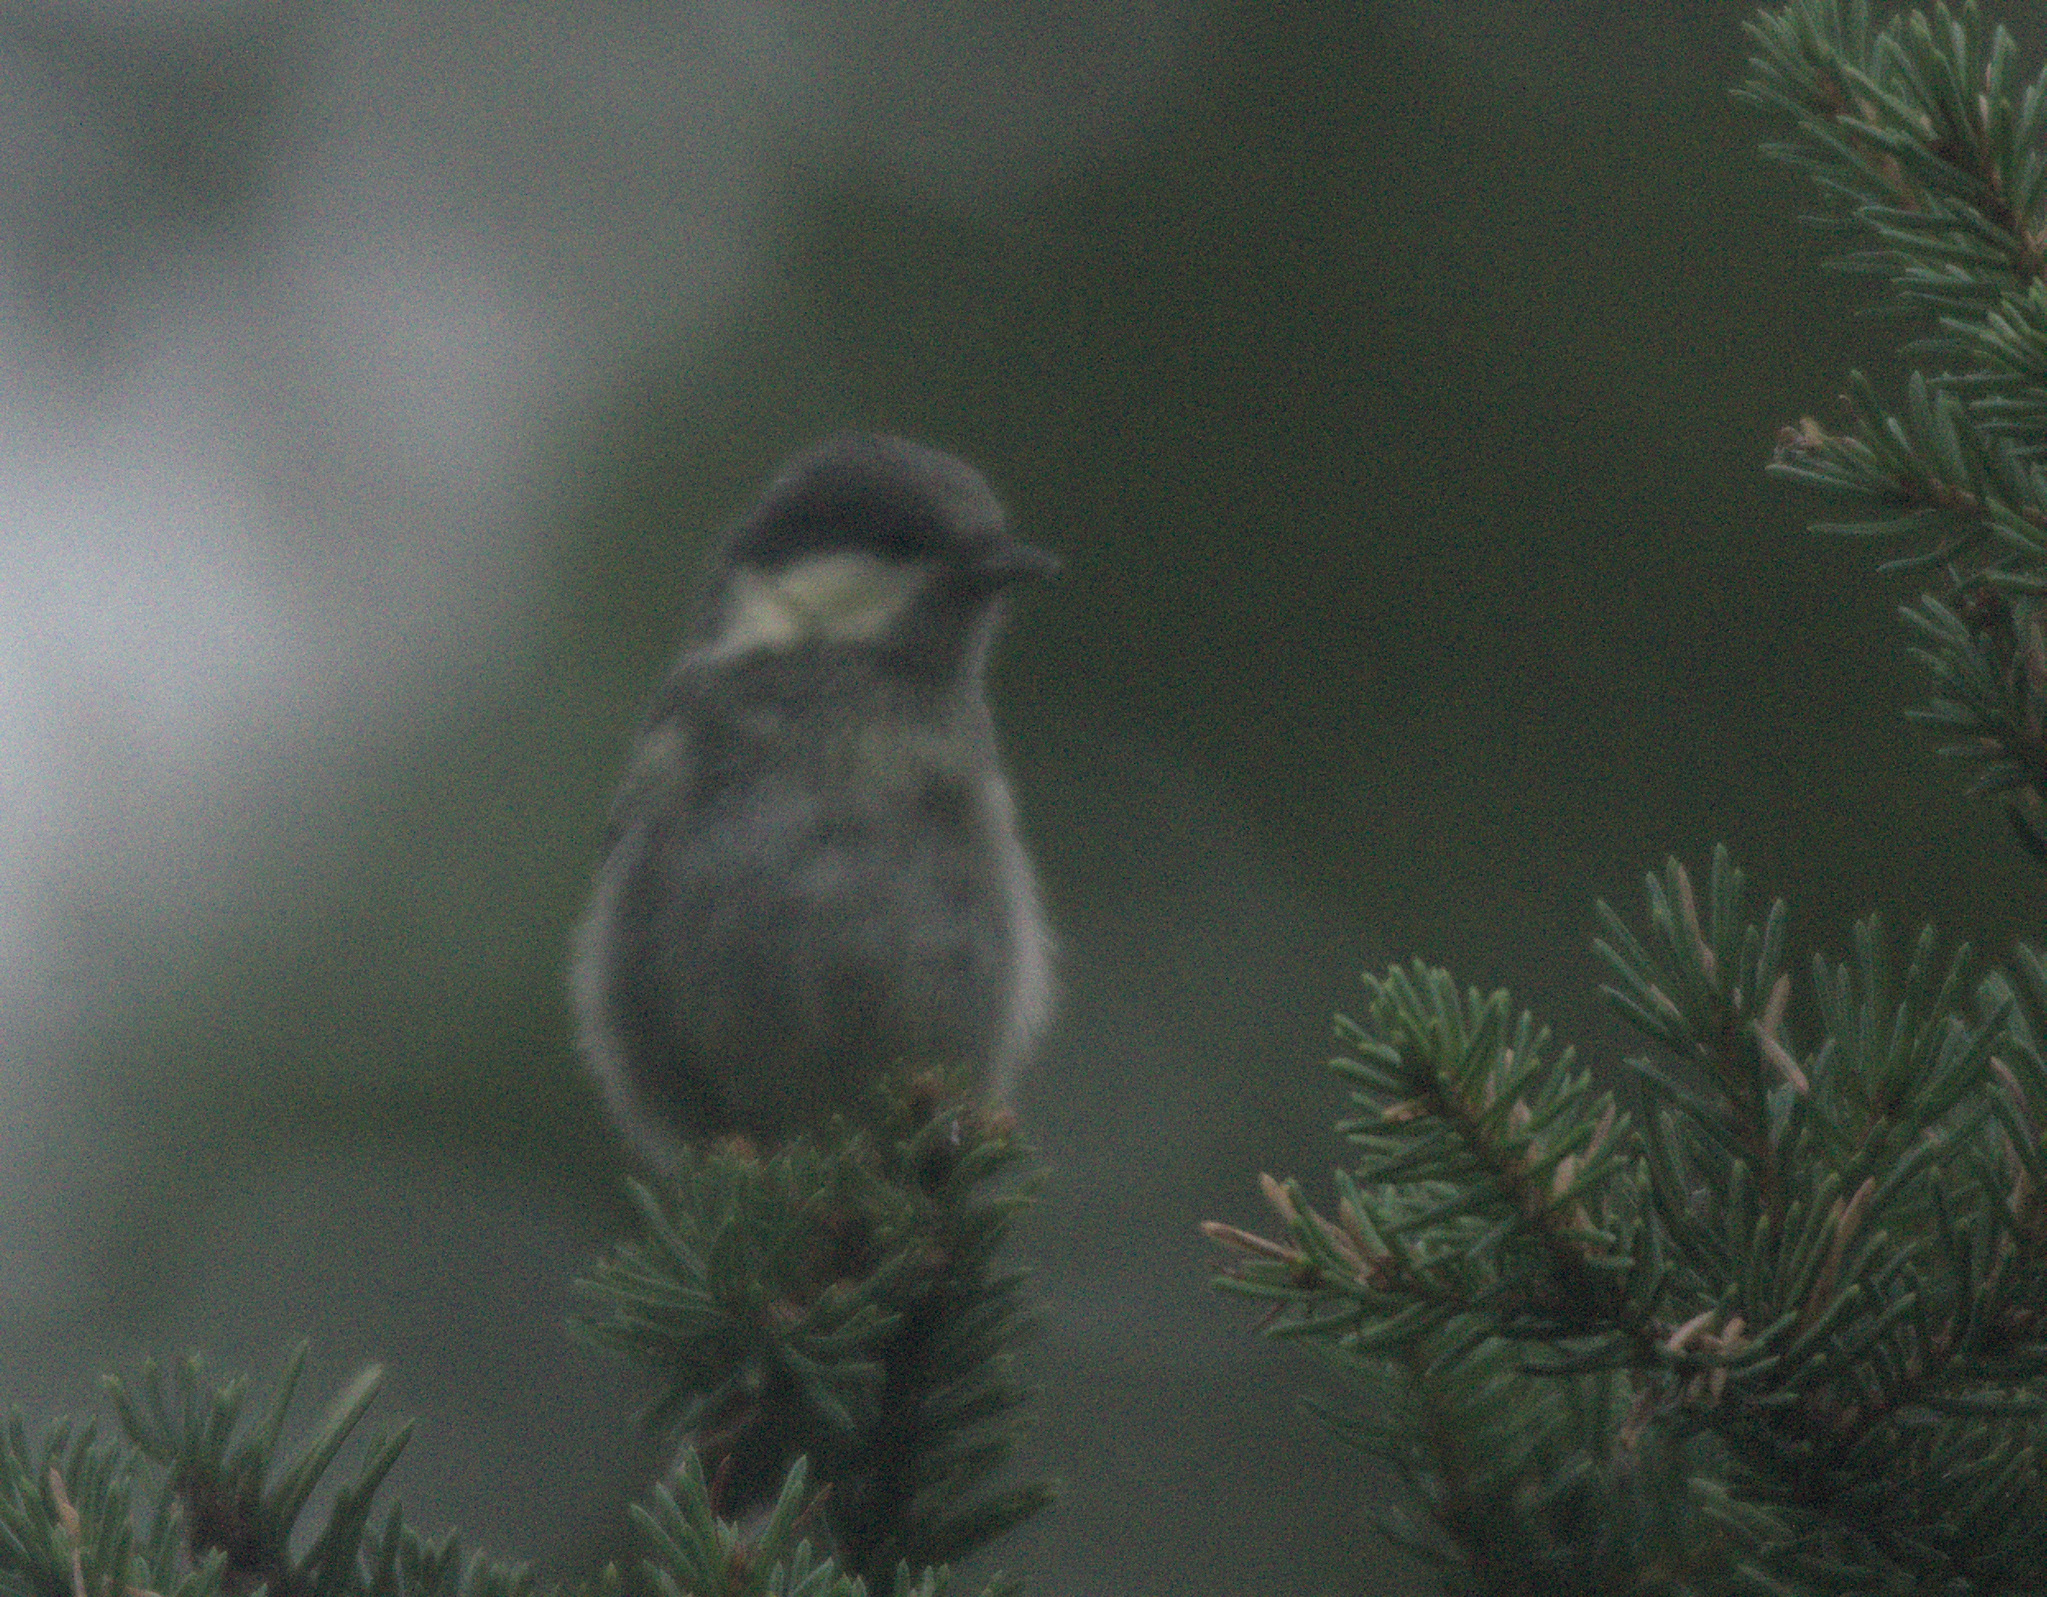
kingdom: Animalia
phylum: Chordata
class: Aves
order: Passeriformes
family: Paridae
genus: Periparus
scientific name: Periparus ater
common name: Coal tit
